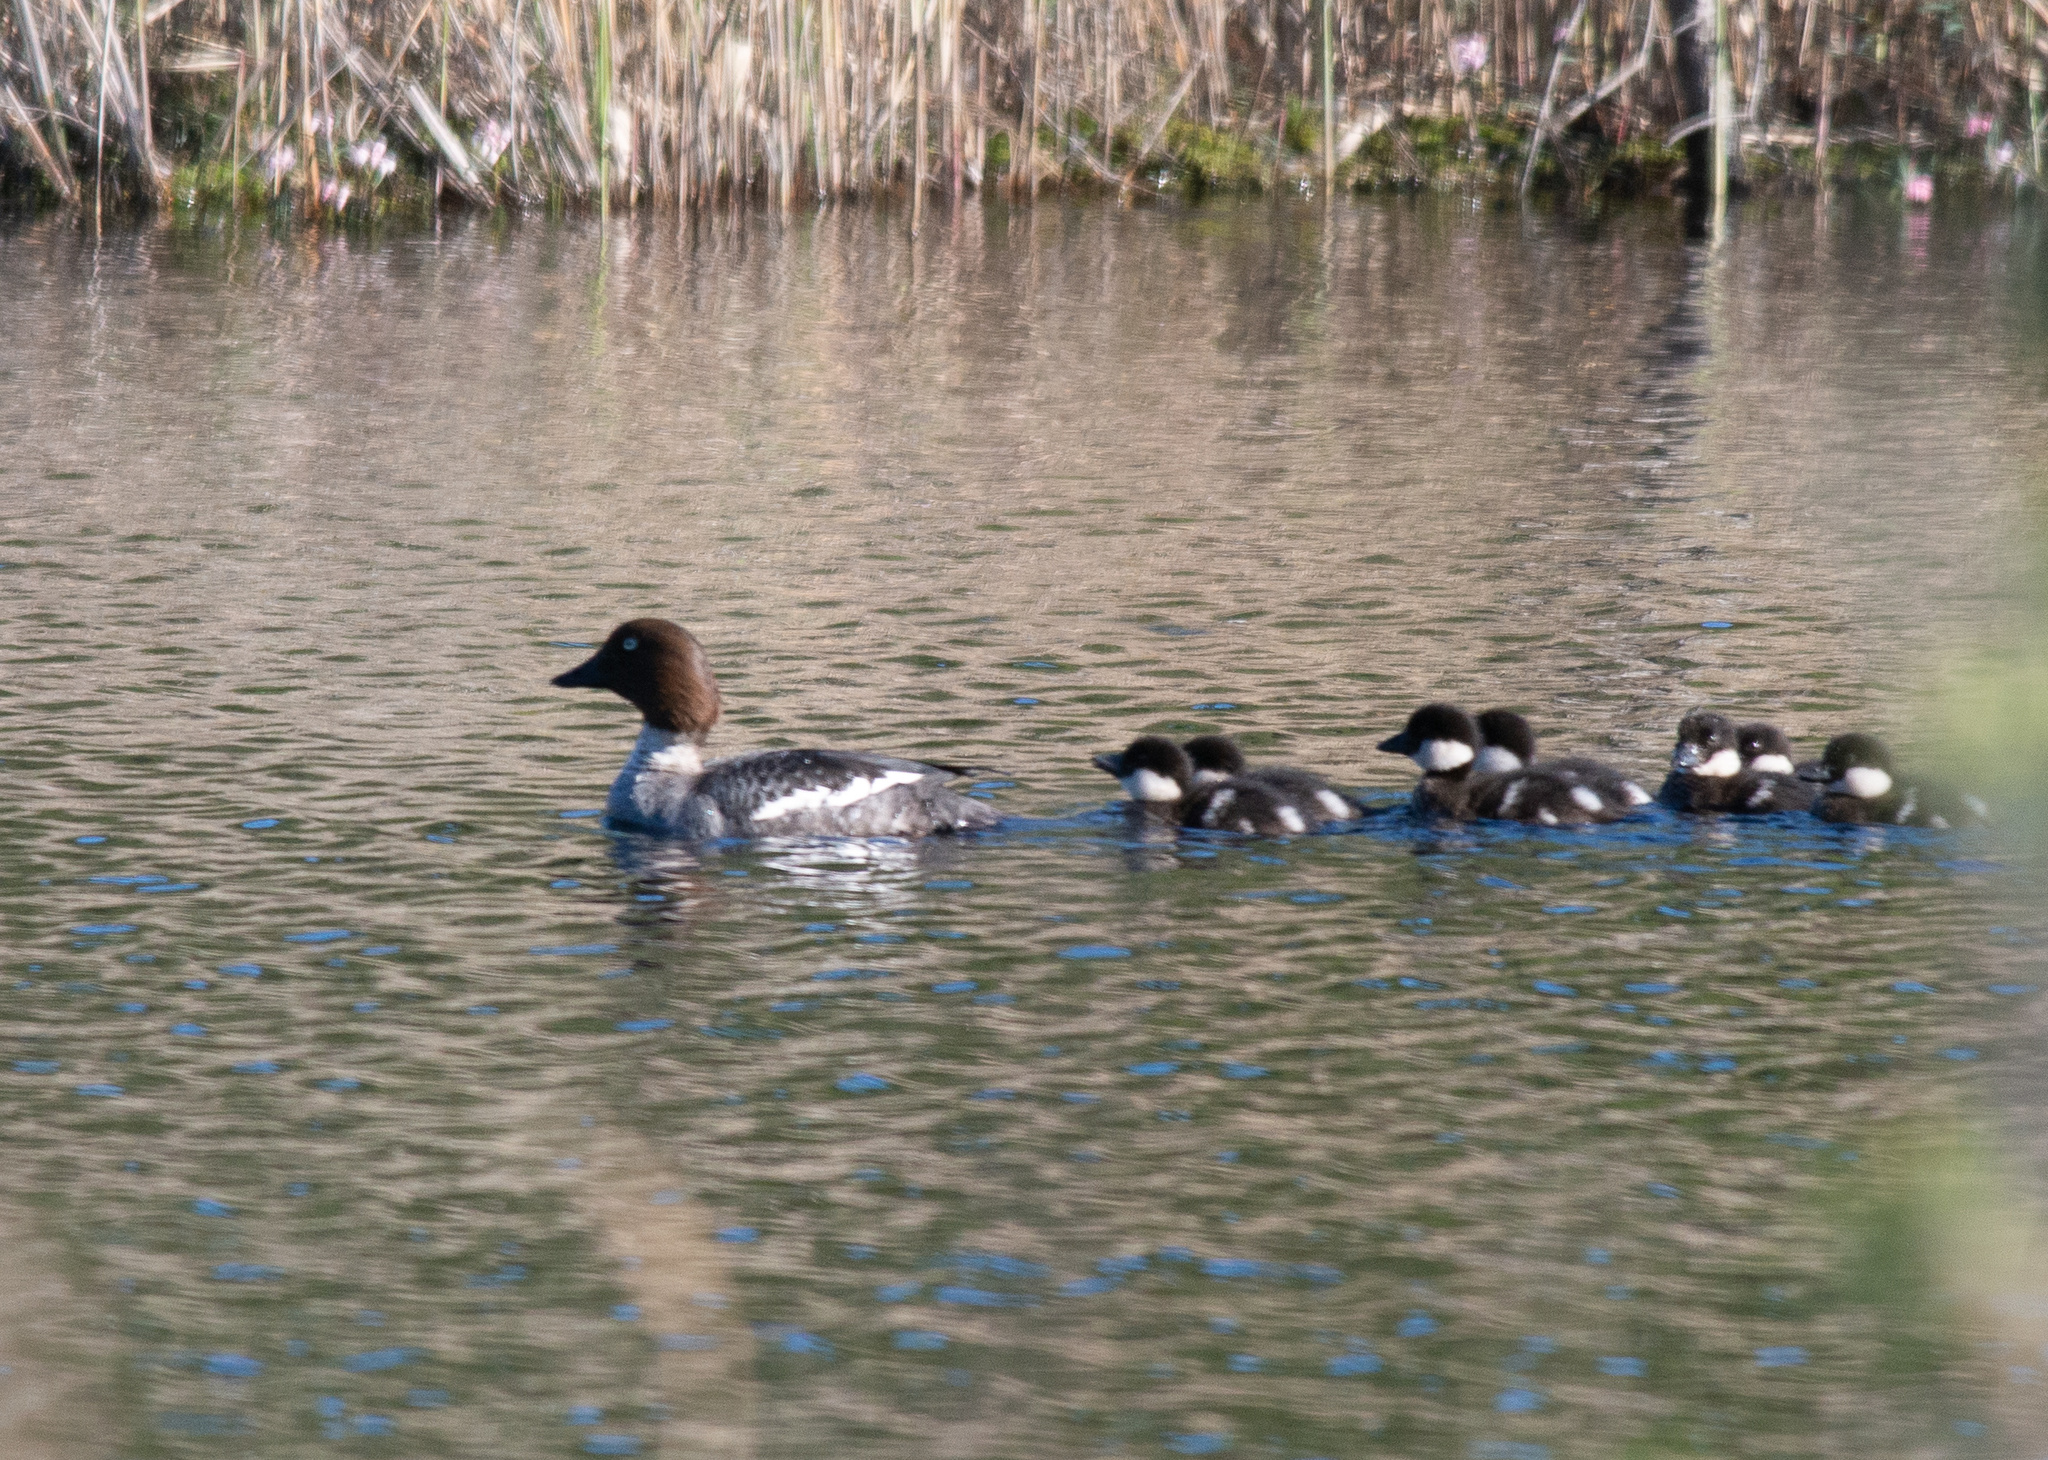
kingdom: Animalia
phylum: Chordata
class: Aves
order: Anseriformes
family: Anatidae
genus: Bucephala
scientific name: Bucephala clangula
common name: Common goldeneye
